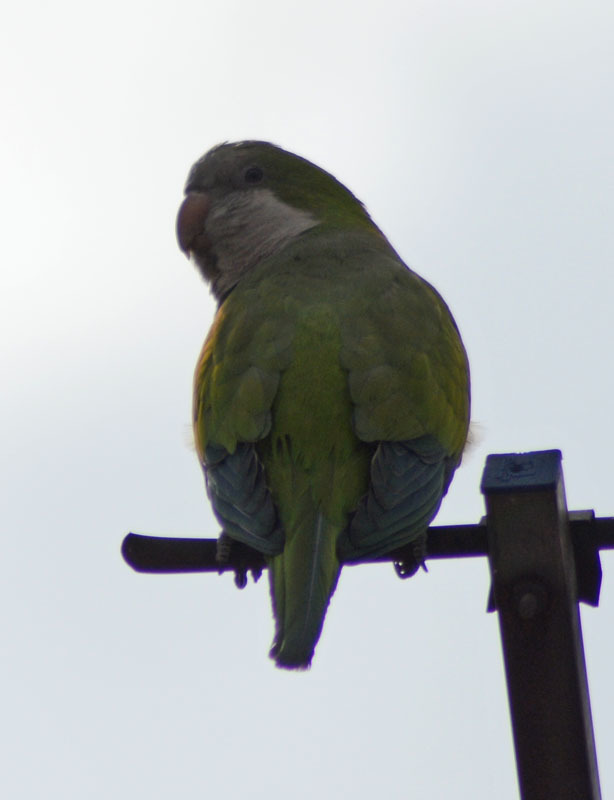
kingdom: Animalia
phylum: Chordata
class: Aves
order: Psittaciformes
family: Psittacidae
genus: Myiopsitta
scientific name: Myiopsitta monachus
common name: Monk parakeet
